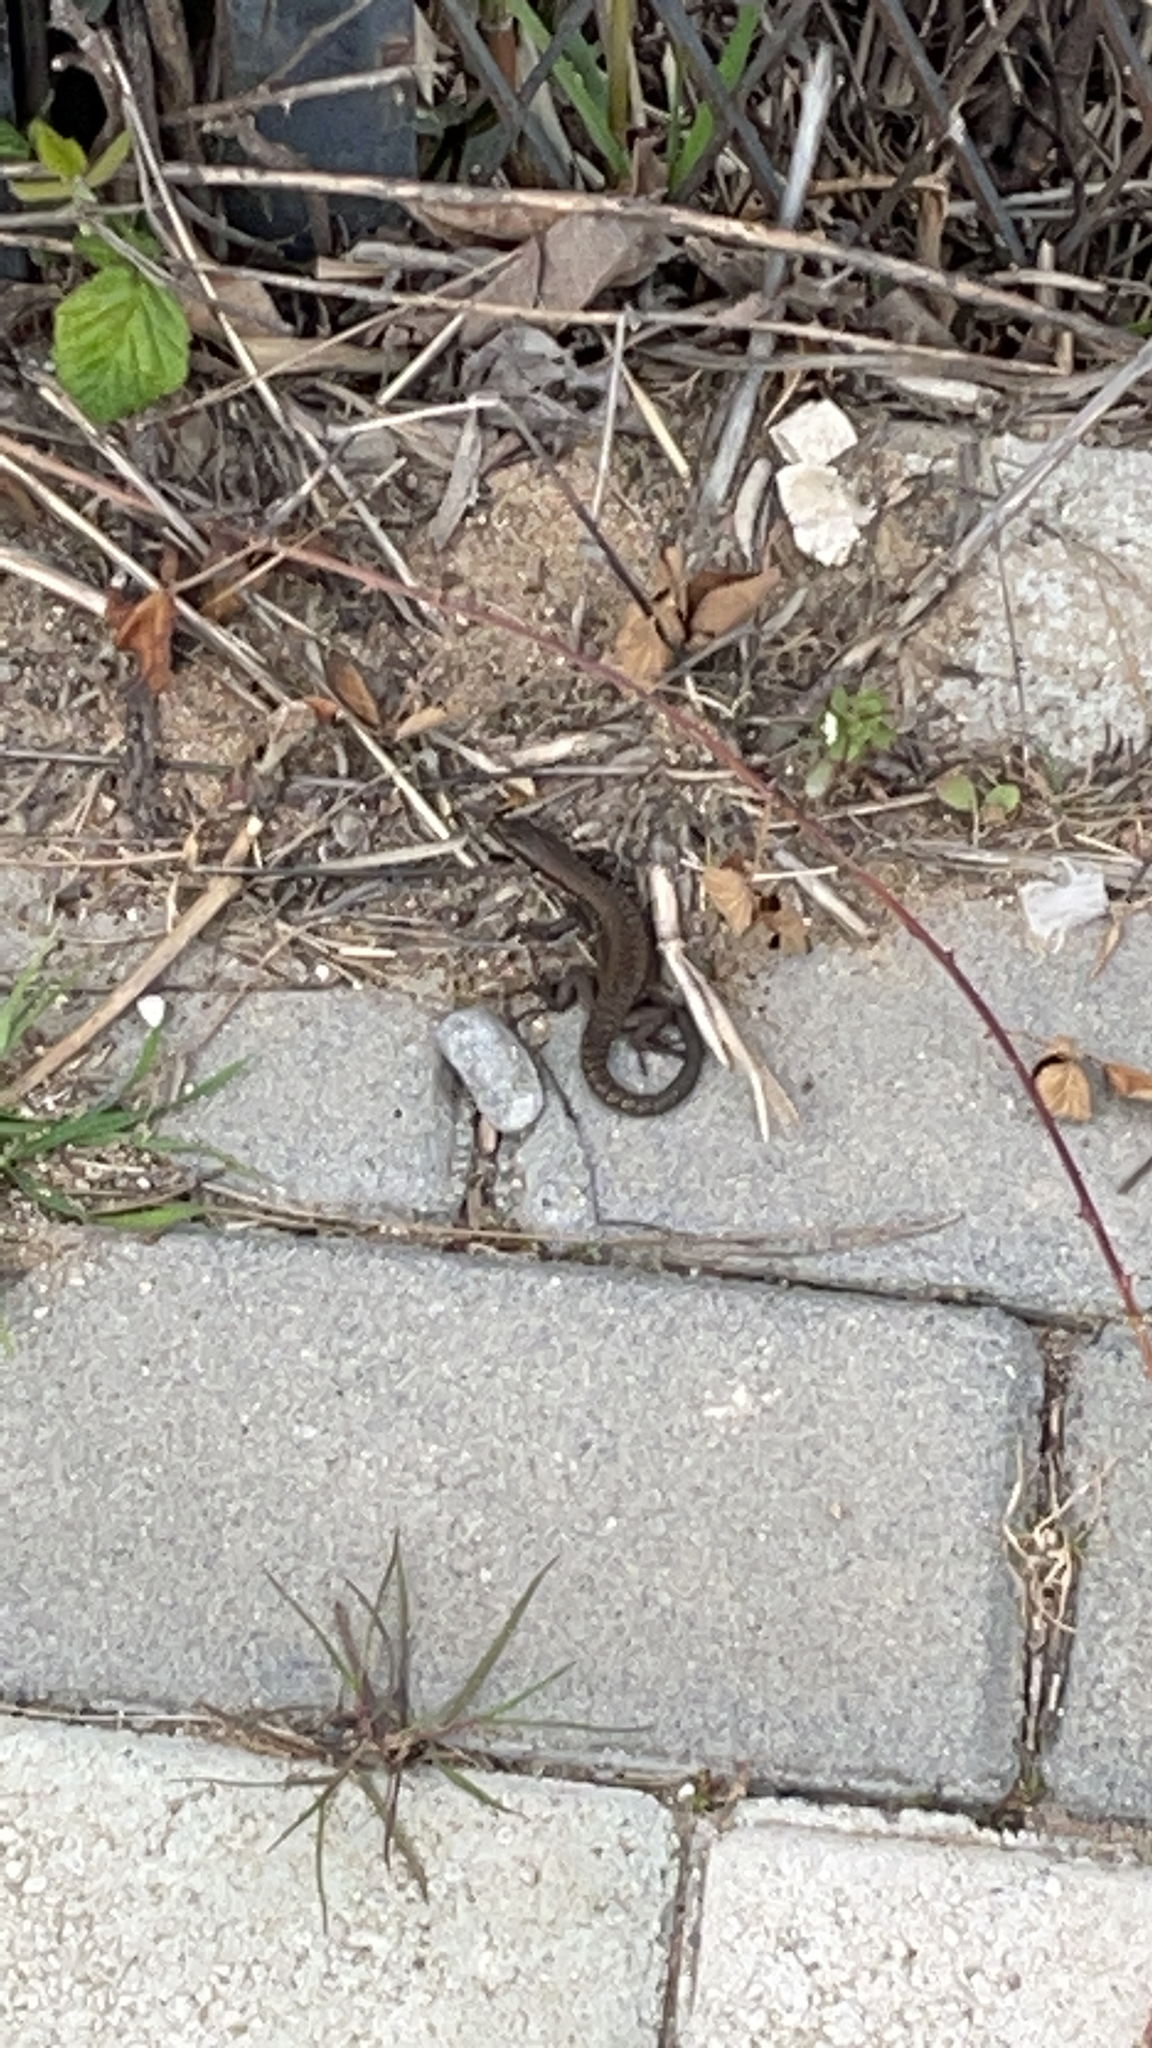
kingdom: Animalia
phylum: Chordata
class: Squamata
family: Lacertidae
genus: Phoenicolacerta
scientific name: Phoenicolacerta laevis
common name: Lebanon lizard
